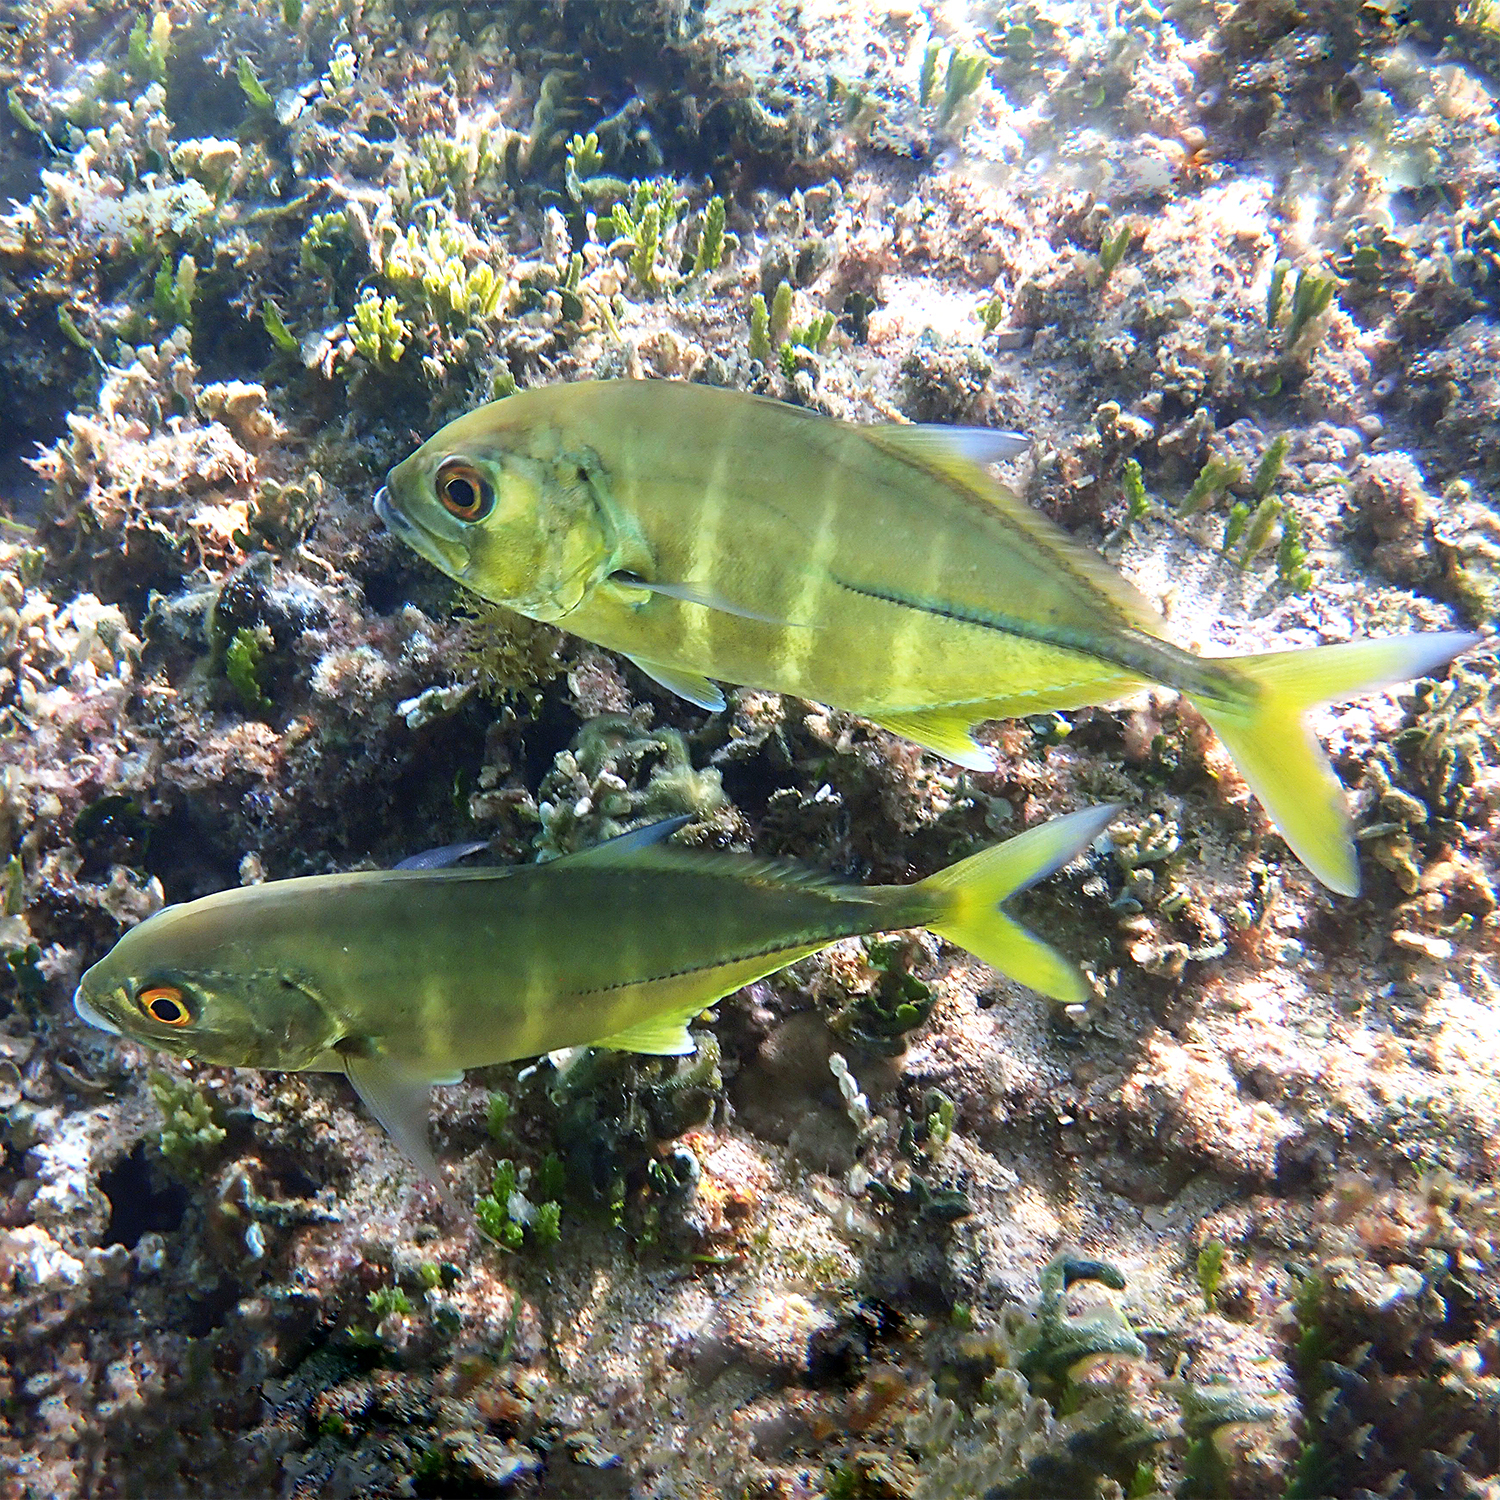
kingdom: Animalia
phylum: Chordata
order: Perciformes
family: Carangidae
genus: Caranx
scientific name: Caranx sexfasciatus
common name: Bigeye trevally
